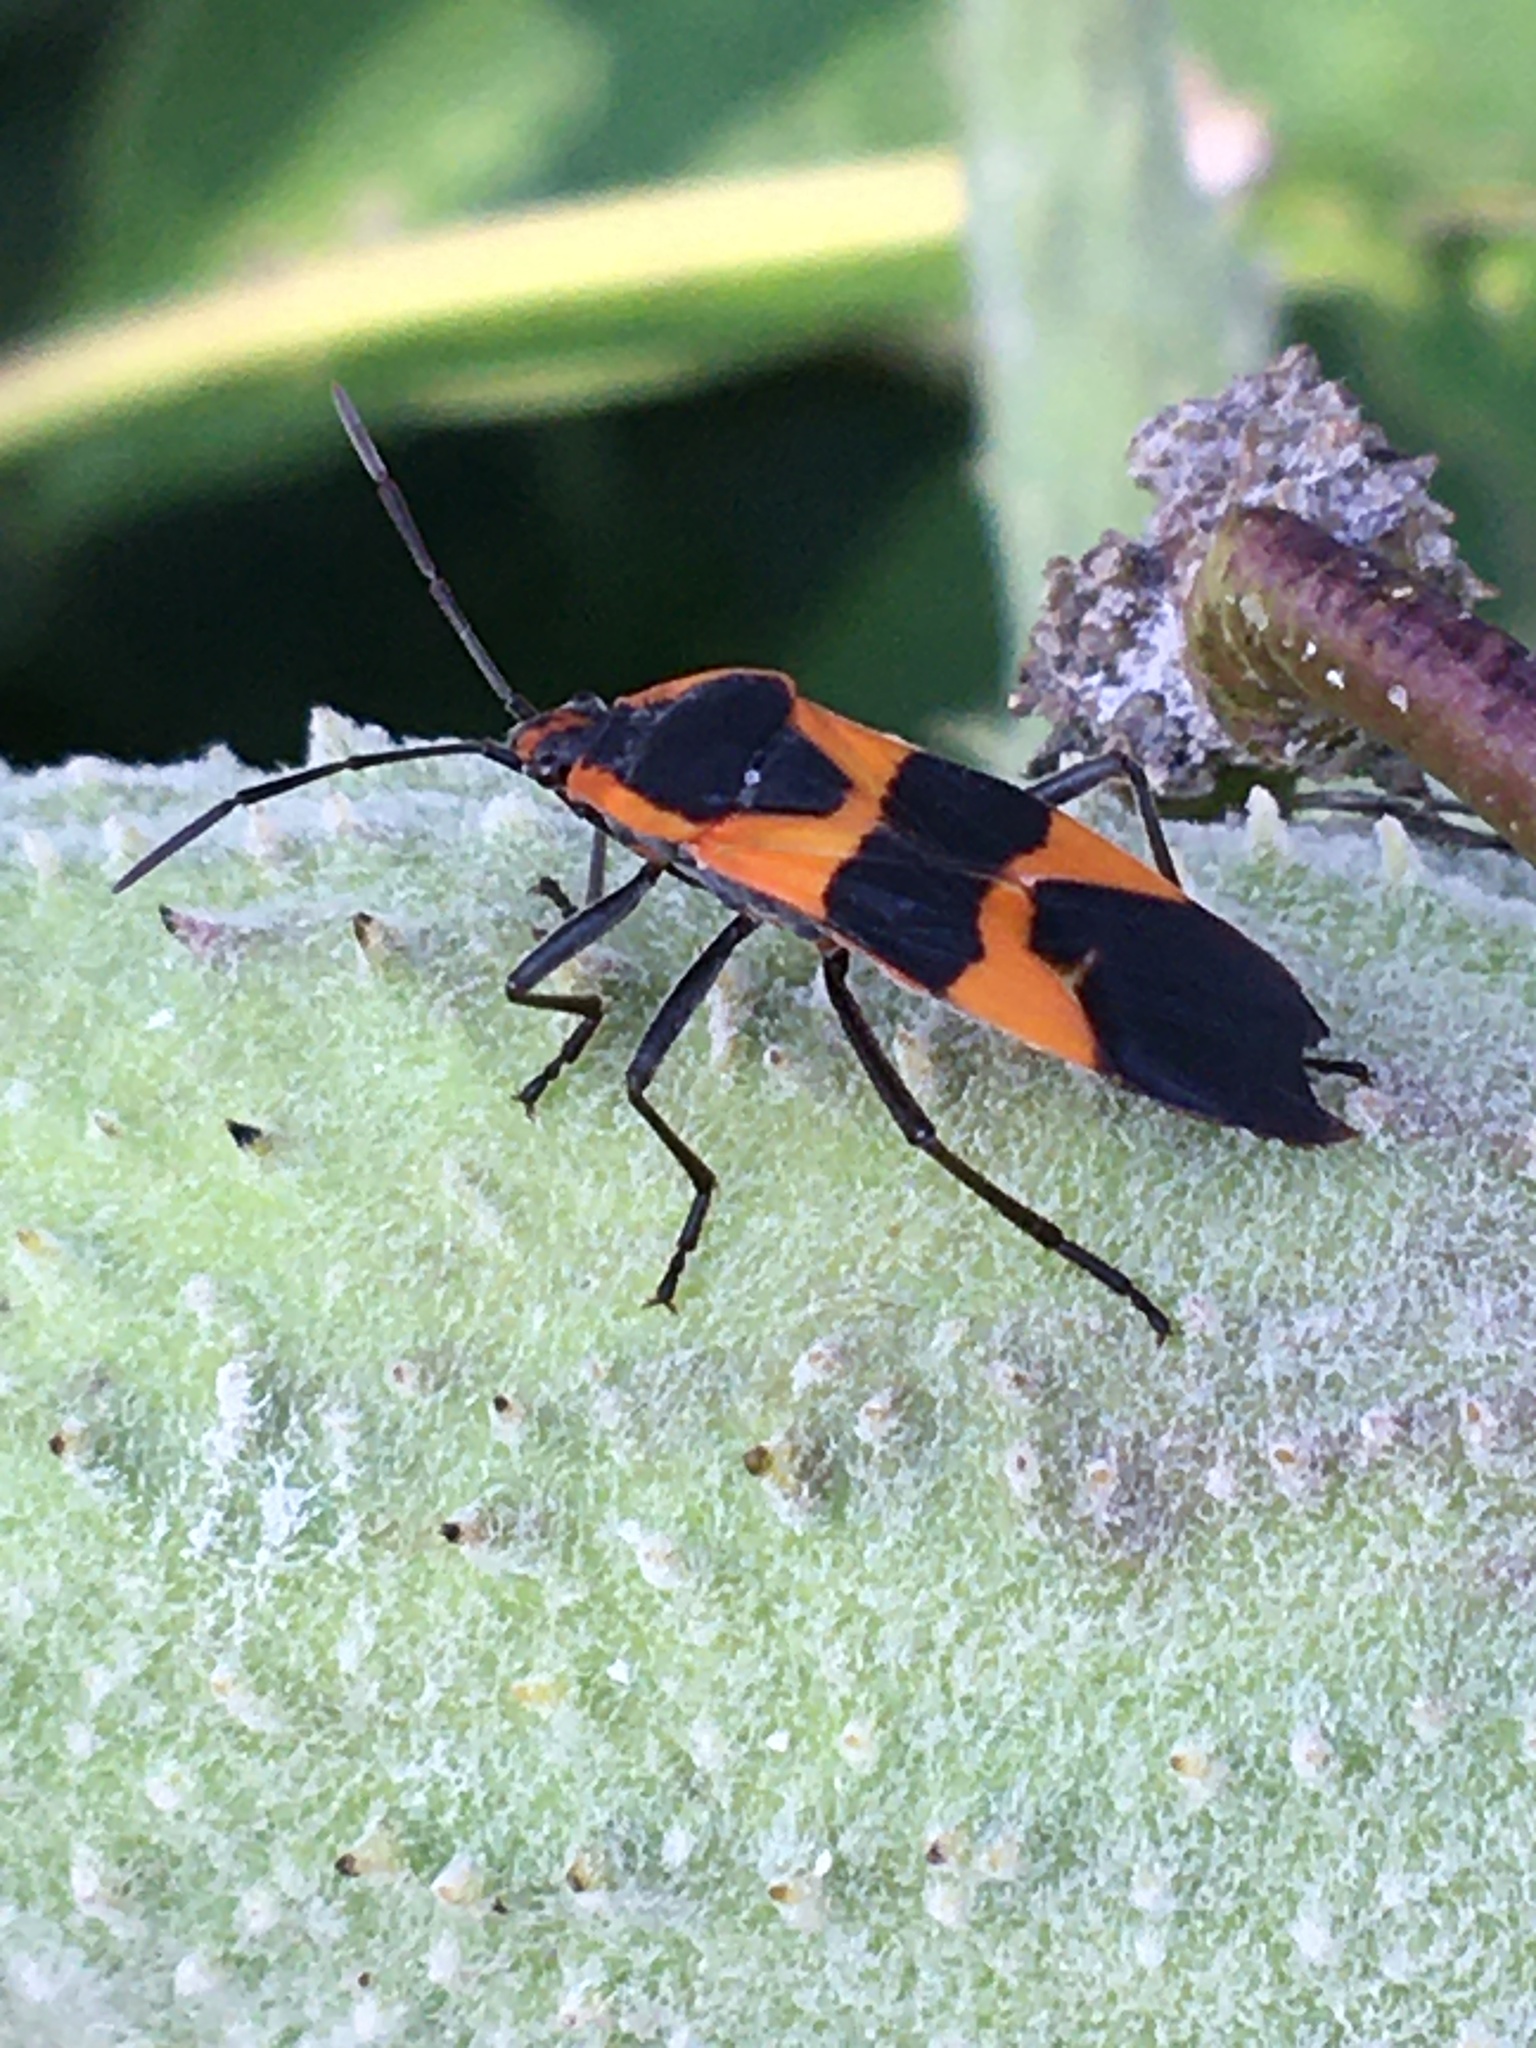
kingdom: Animalia
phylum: Arthropoda
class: Insecta
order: Hemiptera
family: Lygaeidae
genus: Oncopeltus
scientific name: Oncopeltus fasciatus
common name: Large milkweed bug
